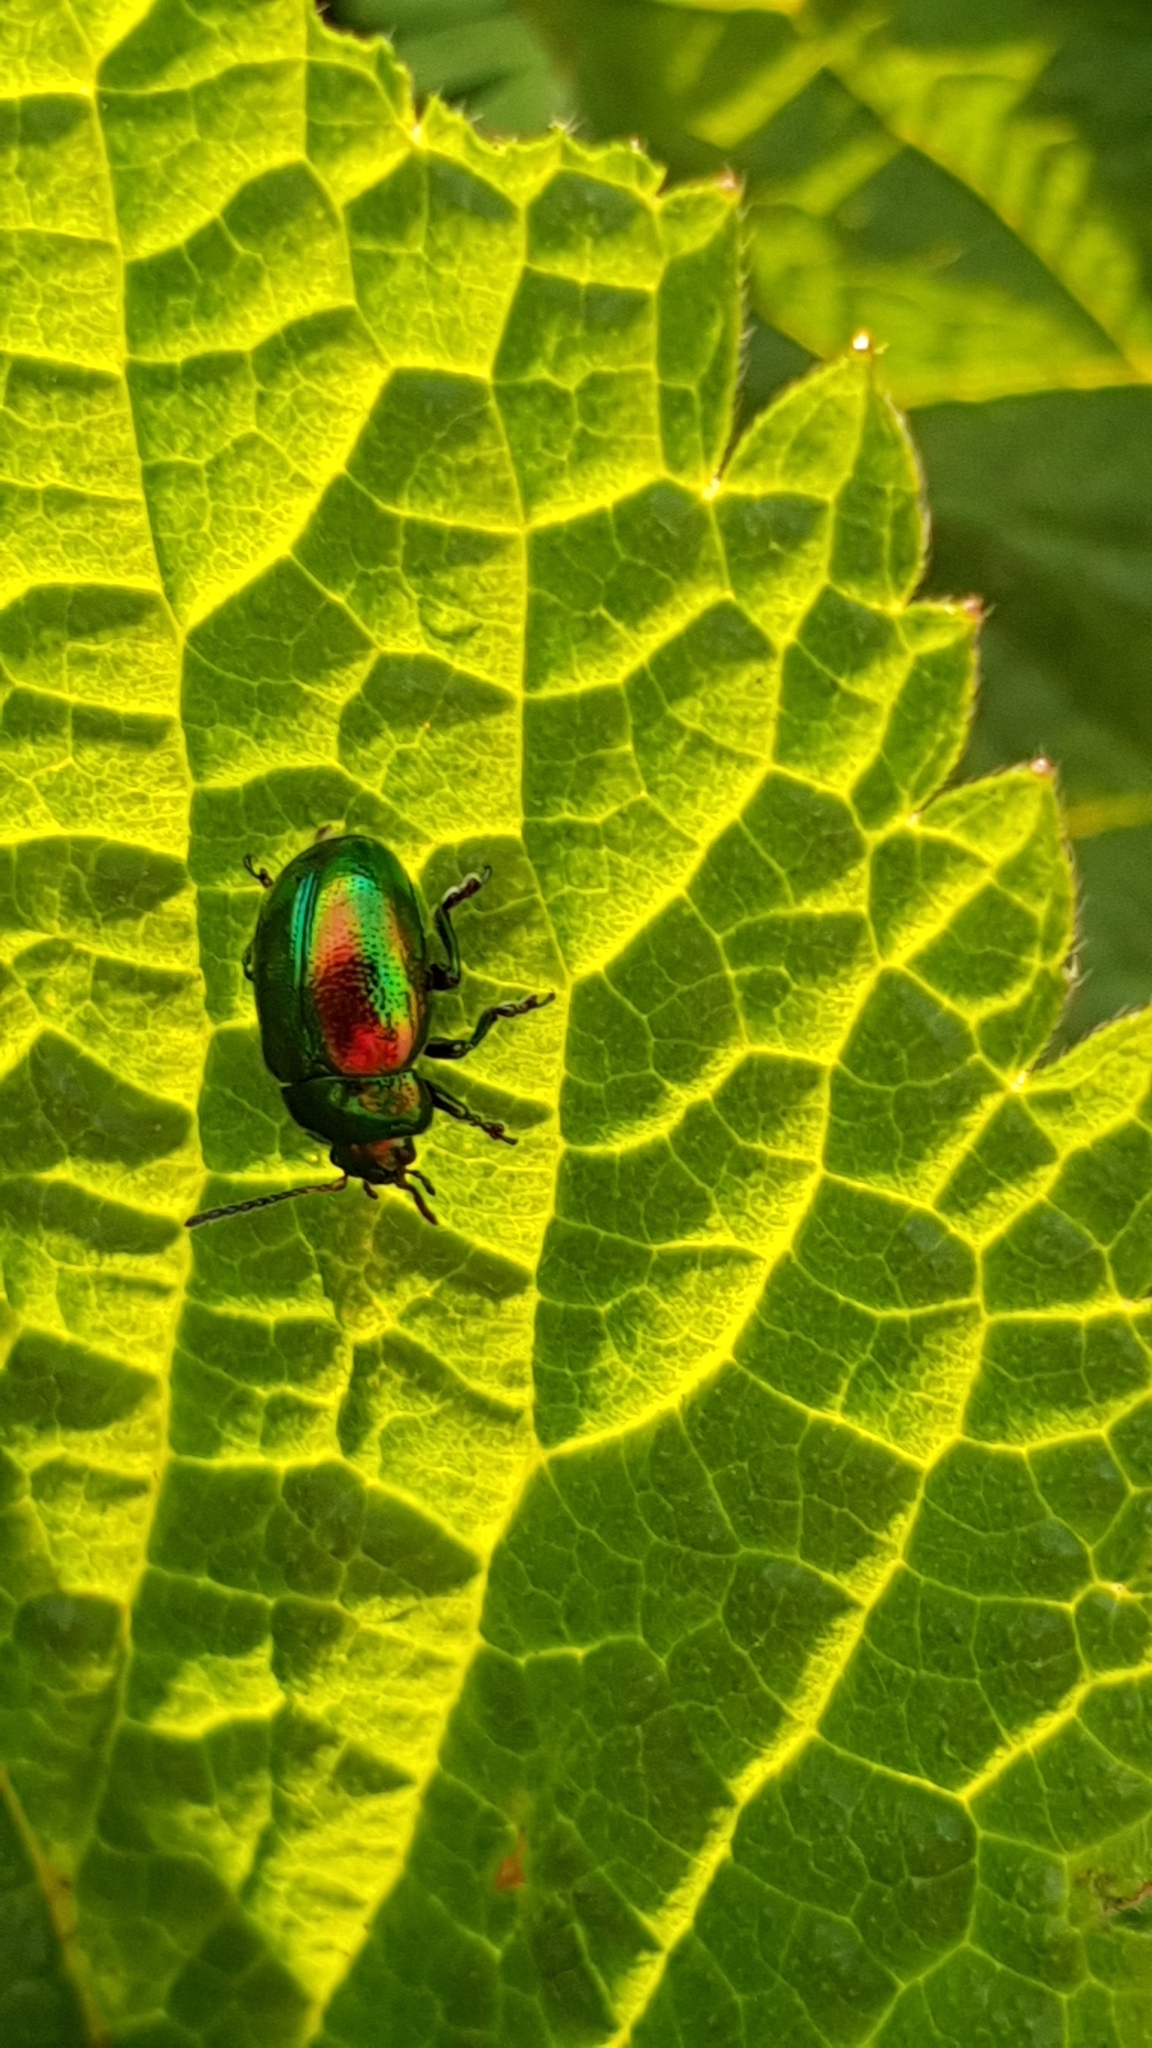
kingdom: Animalia
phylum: Arthropoda
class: Insecta
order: Coleoptera
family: Chrysomelidae
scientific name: Chrysomelidae
